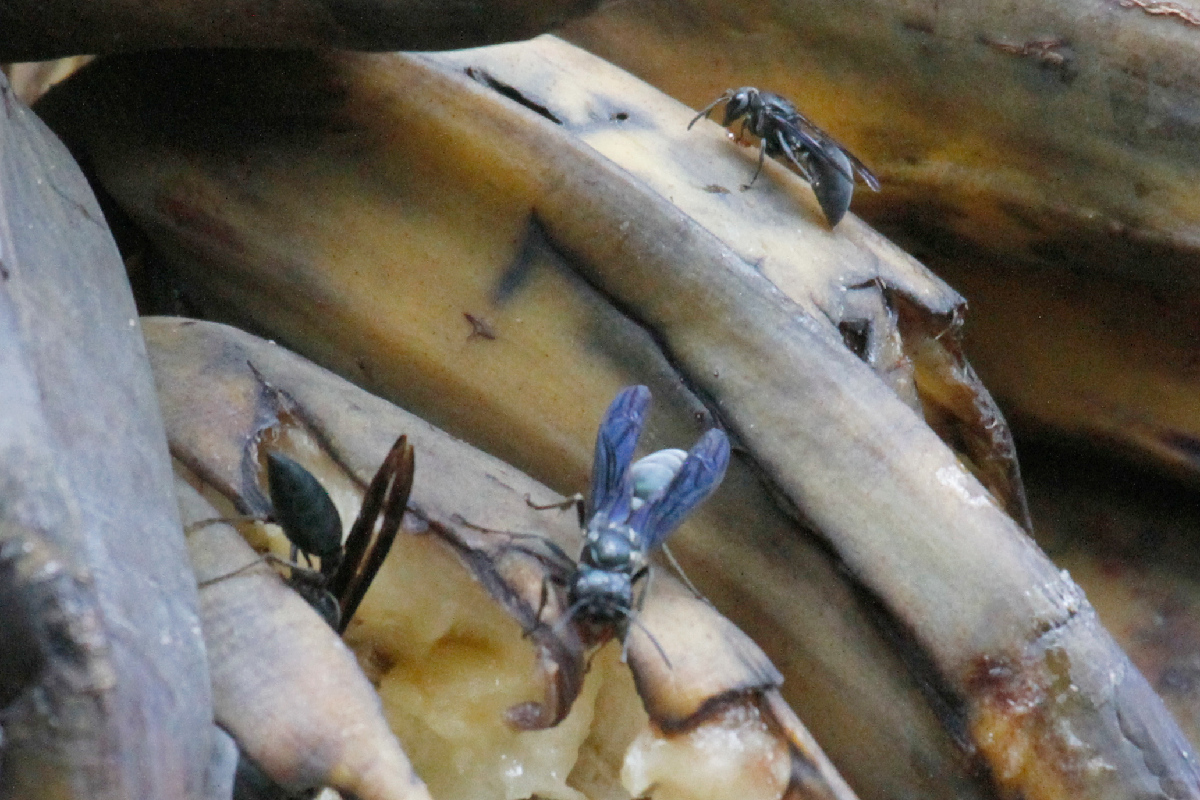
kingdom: Animalia
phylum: Arthropoda
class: Insecta
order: Hymenoptera
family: Vespidae
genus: Synoeca
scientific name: Synoeca septentrionalis
